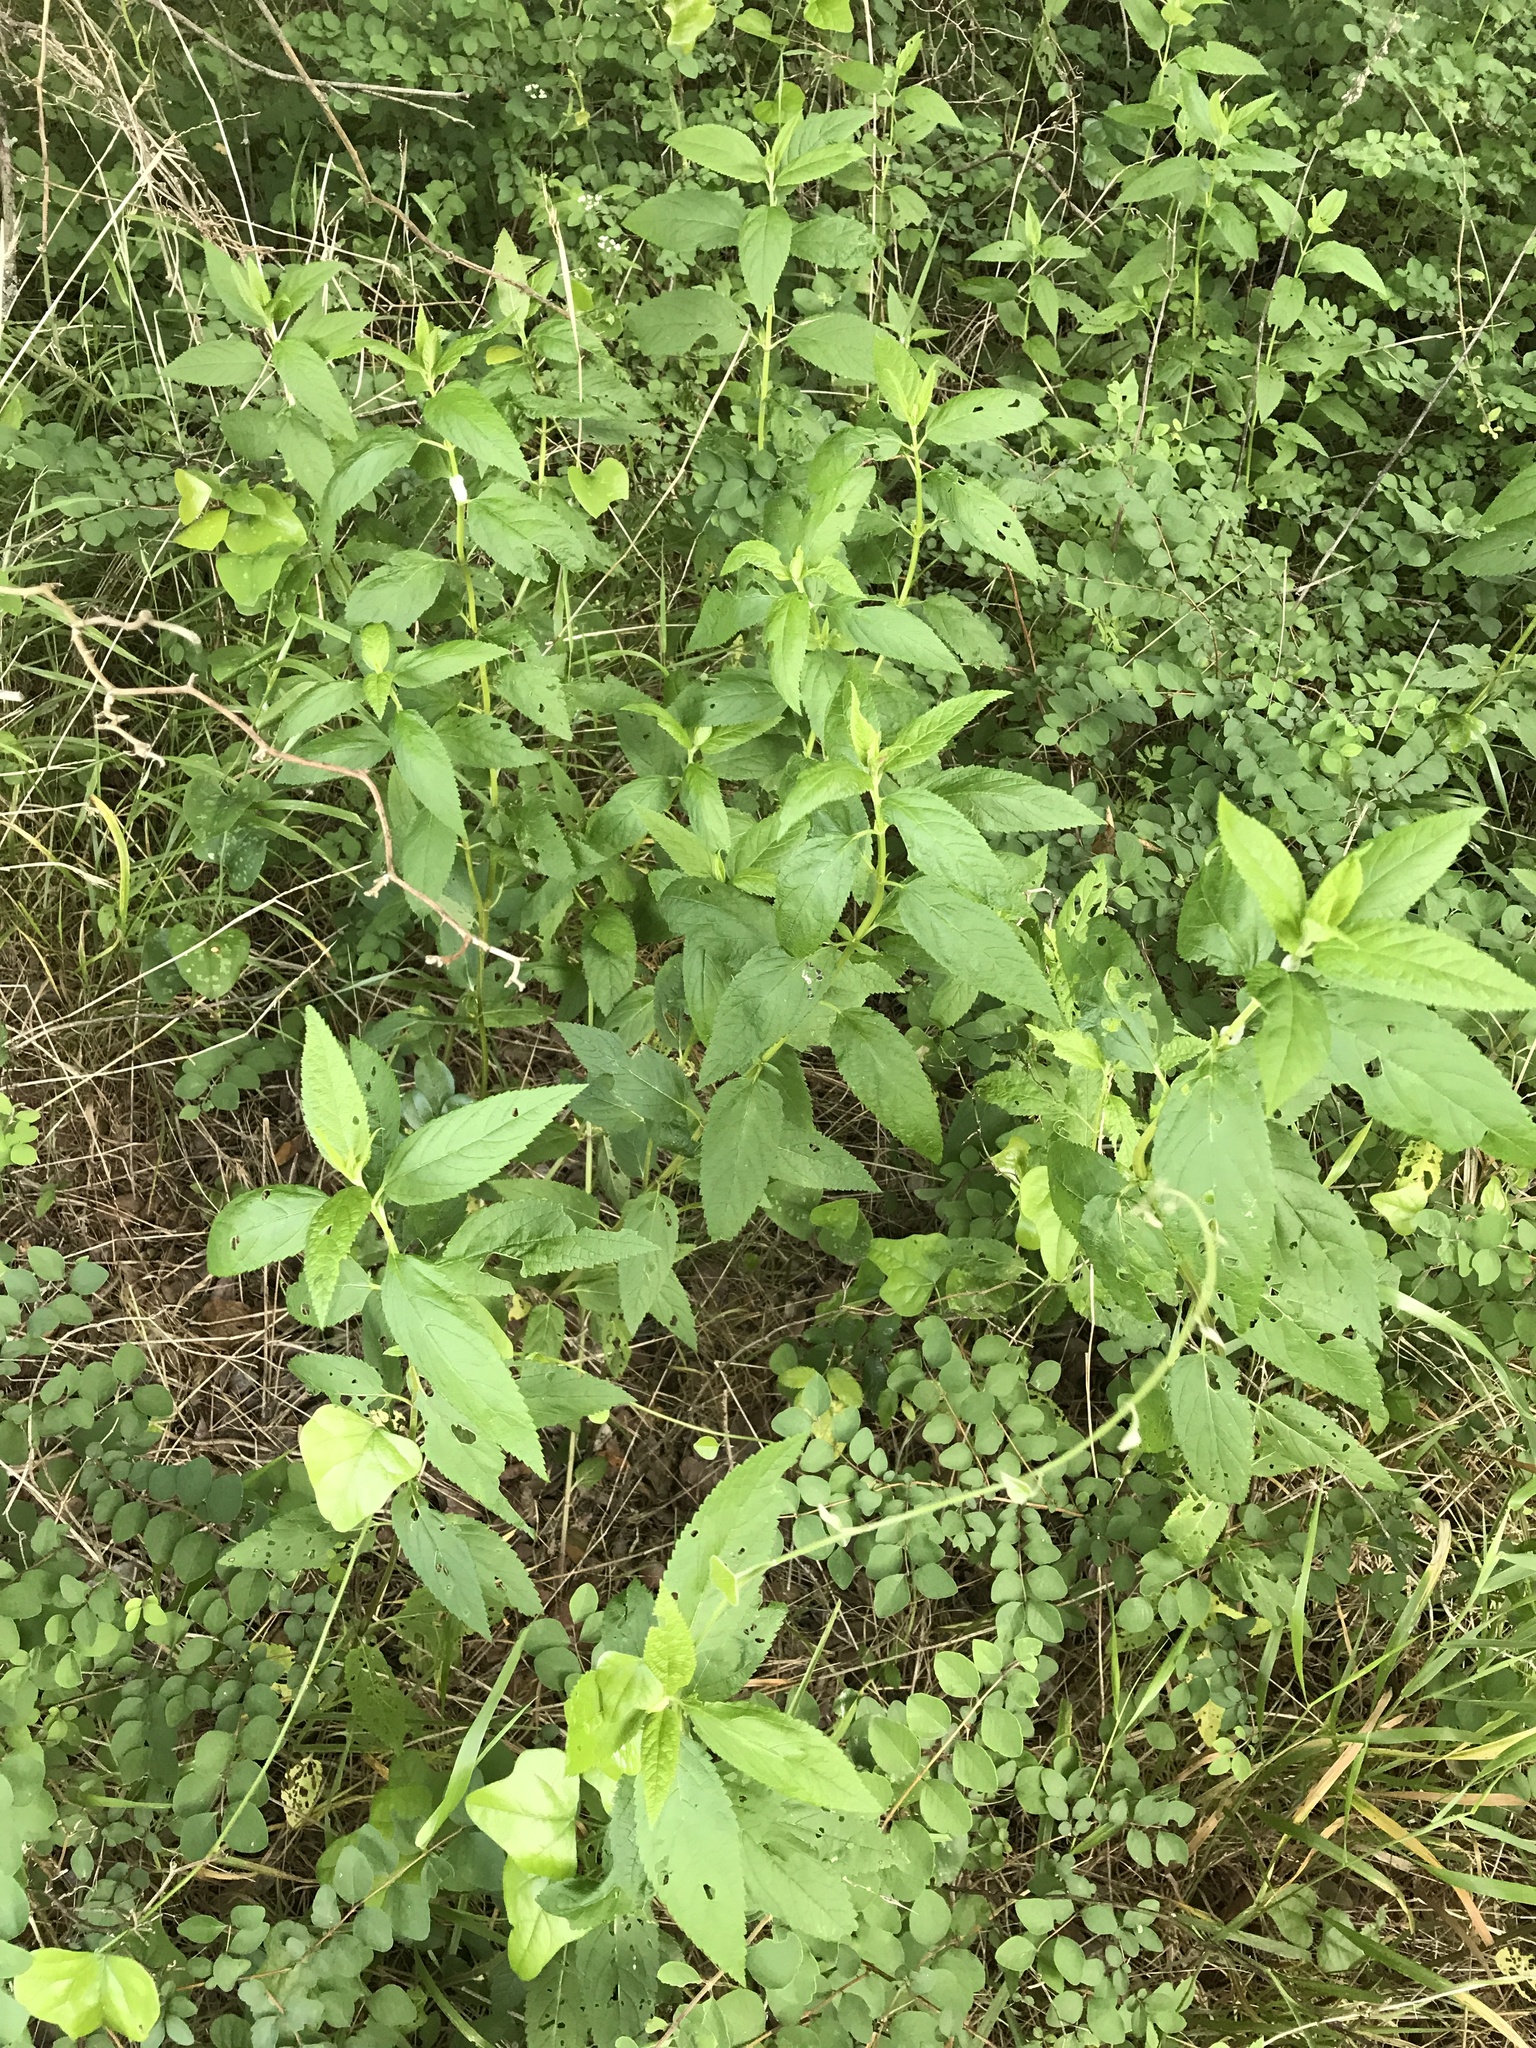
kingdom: Plantae
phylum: Tracheophyta
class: Magnoliopsida
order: Lamiales
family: Lamiaceae
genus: Teucrium
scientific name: Teucrium canadense
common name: American germander
